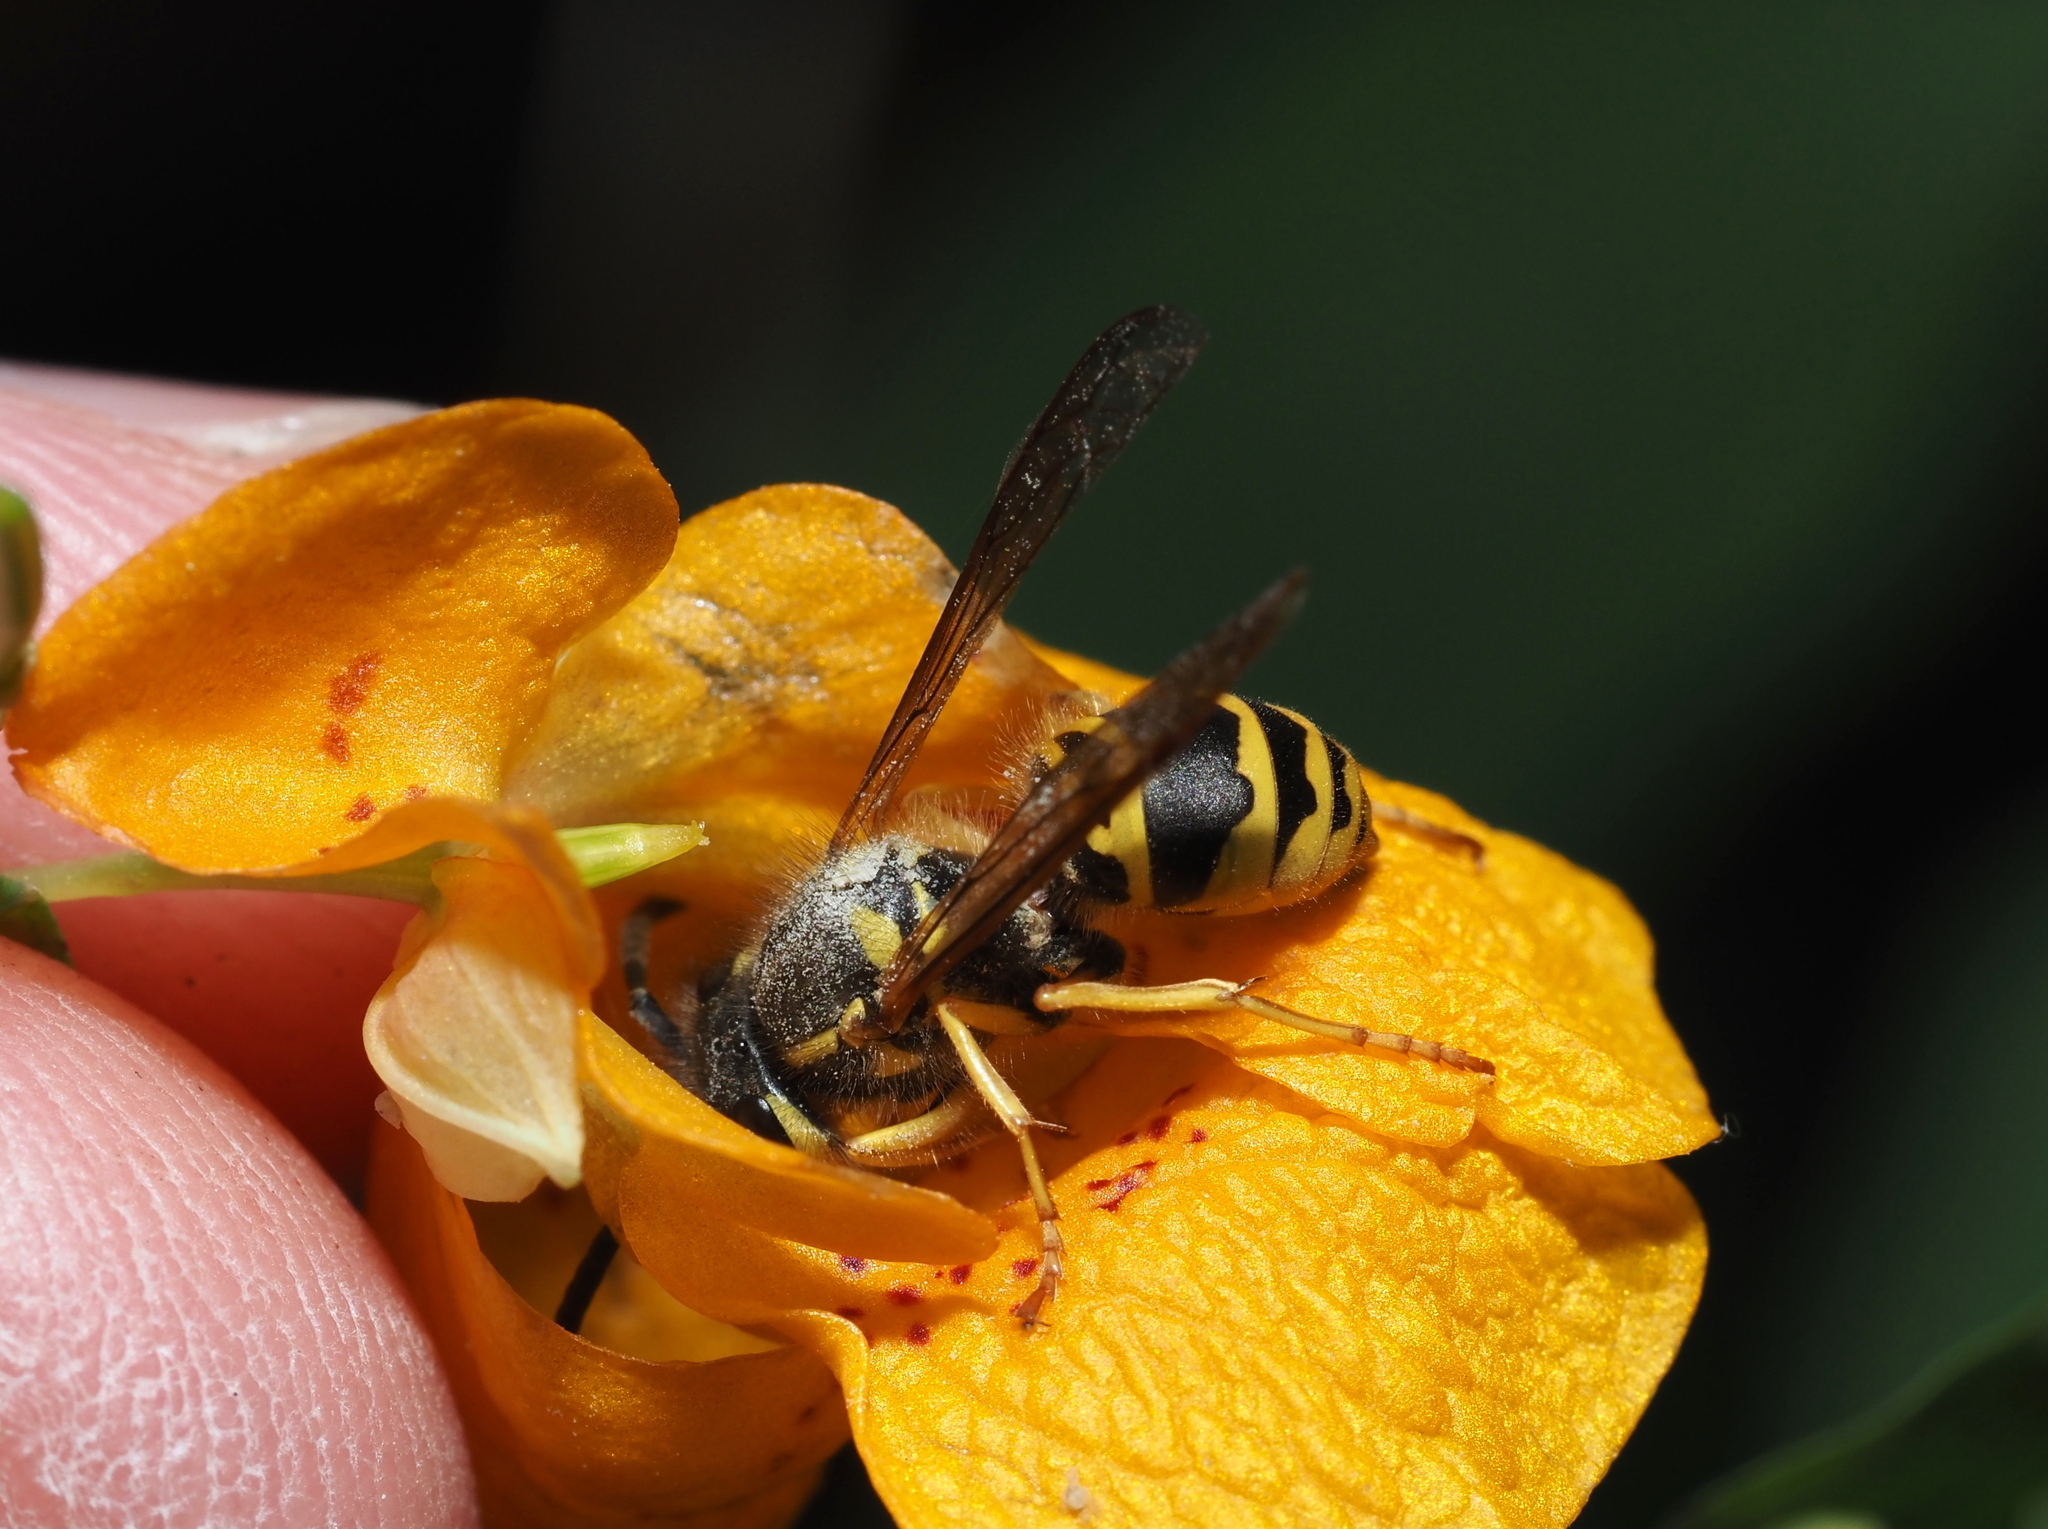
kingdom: Animalia
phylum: Arthropoda
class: Insecta
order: Hymenoptera
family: Vespidae
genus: Vespula
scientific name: Vespula maculifrons
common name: Eastern yellowjacket
